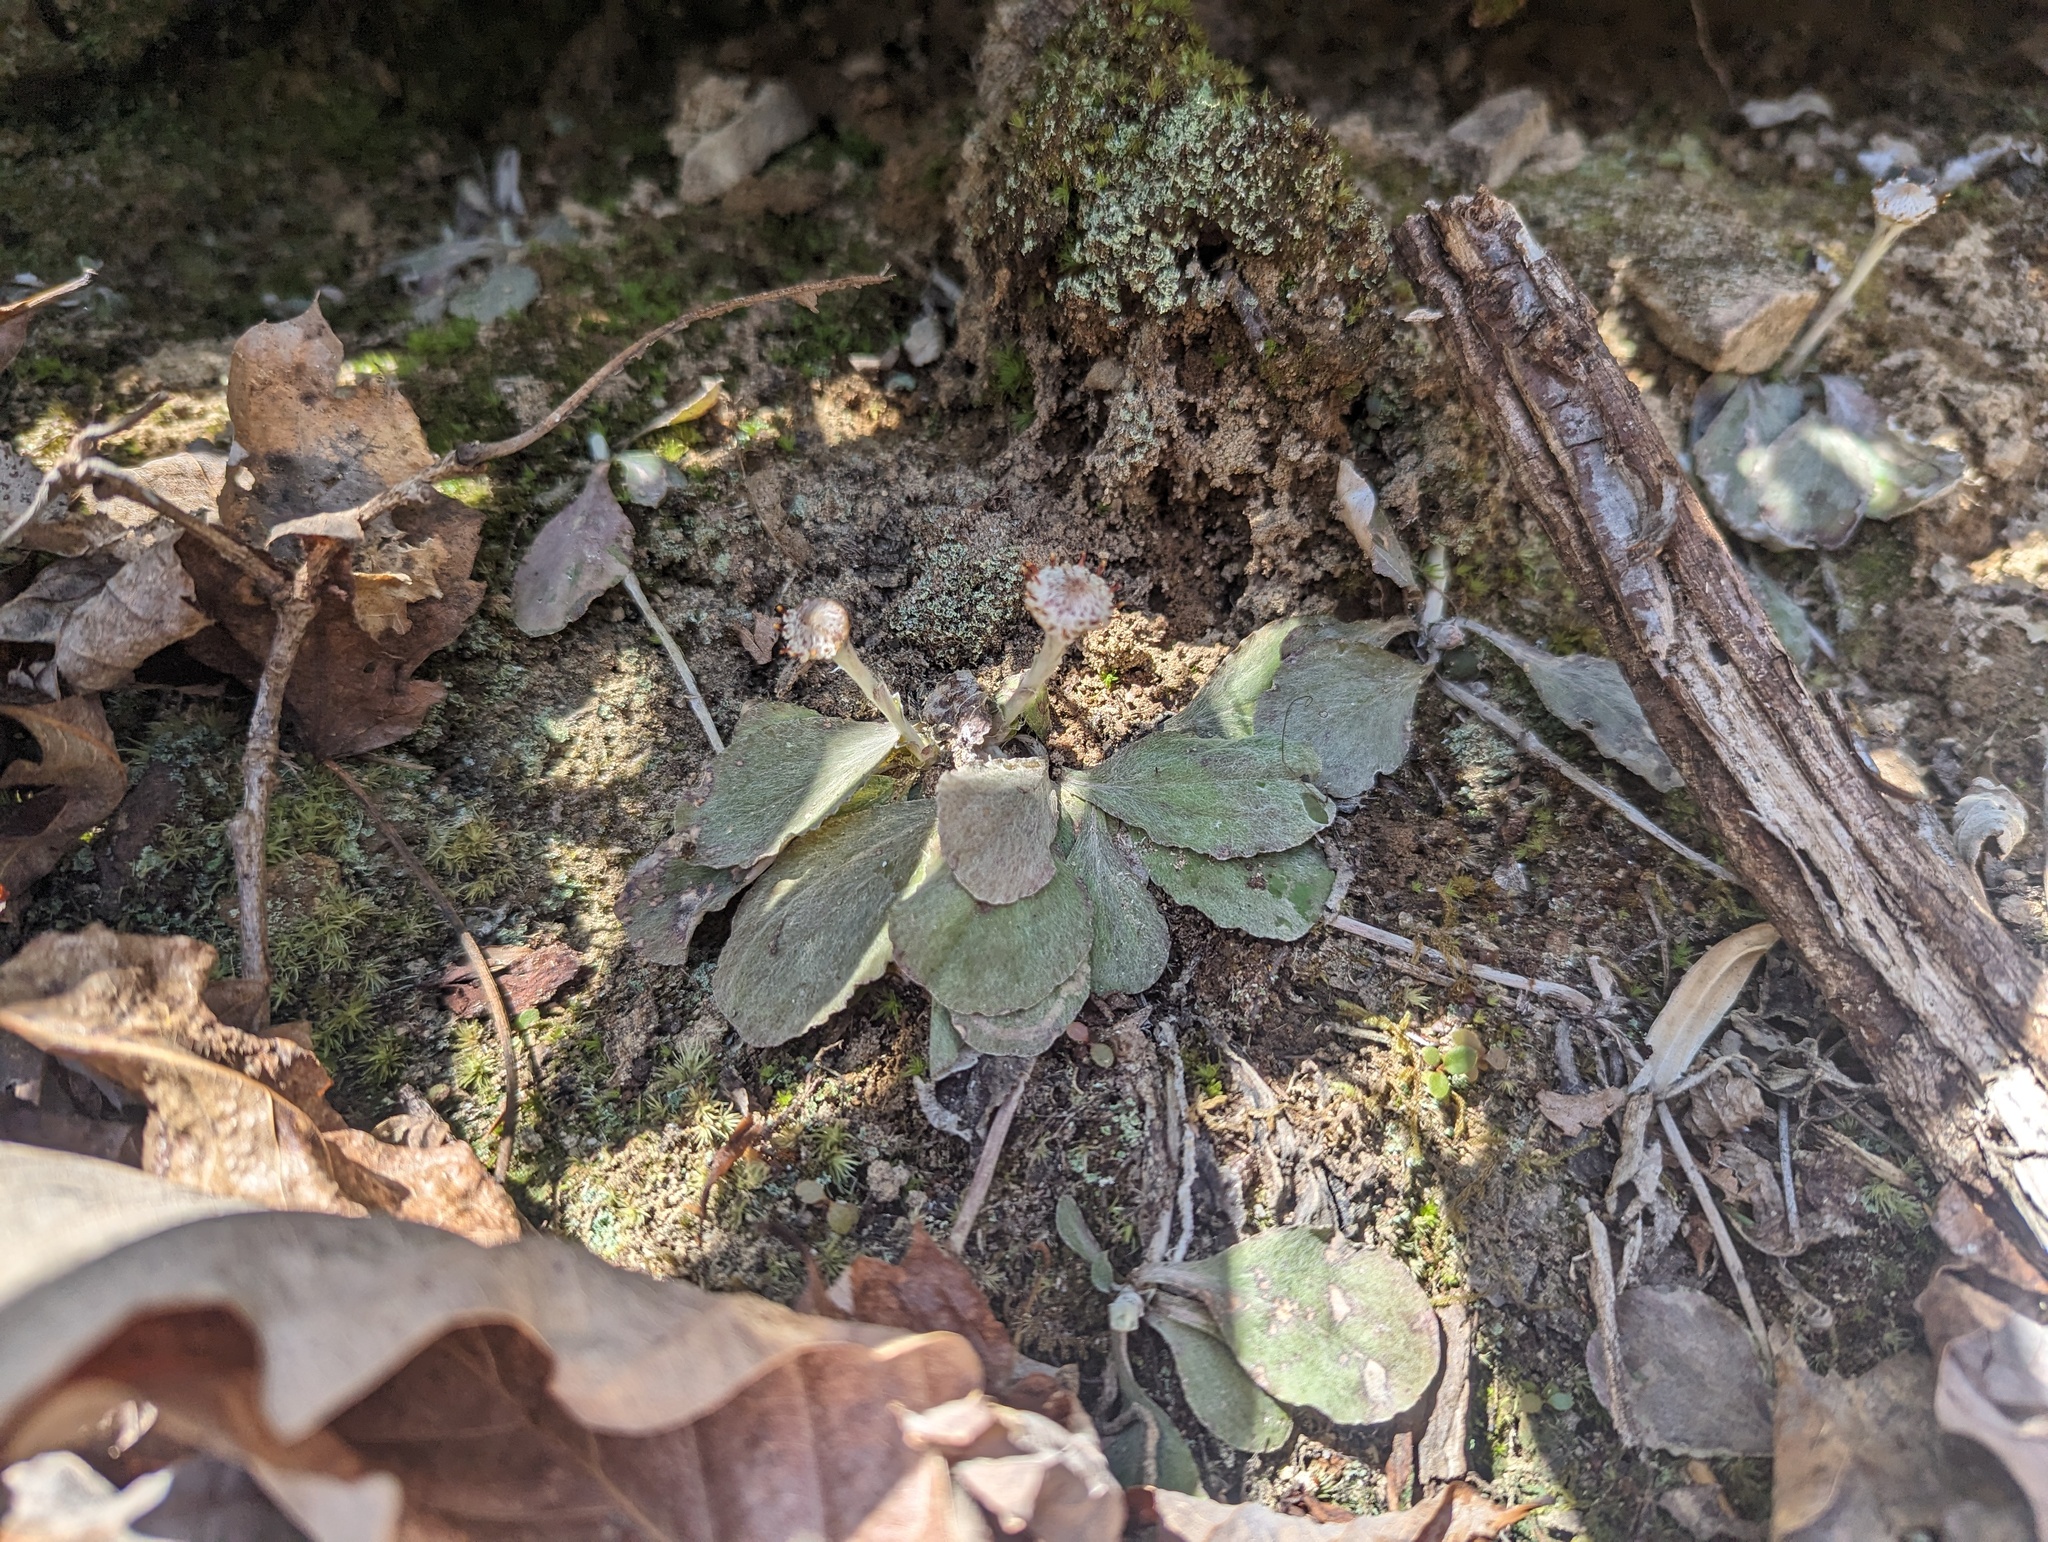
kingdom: Plantae
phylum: Tracheophyta
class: Magnoliopsida
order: Asterales
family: Asteraceae
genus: Antennaria
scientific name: Antennaria solitaria
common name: Single-head pussytoes
